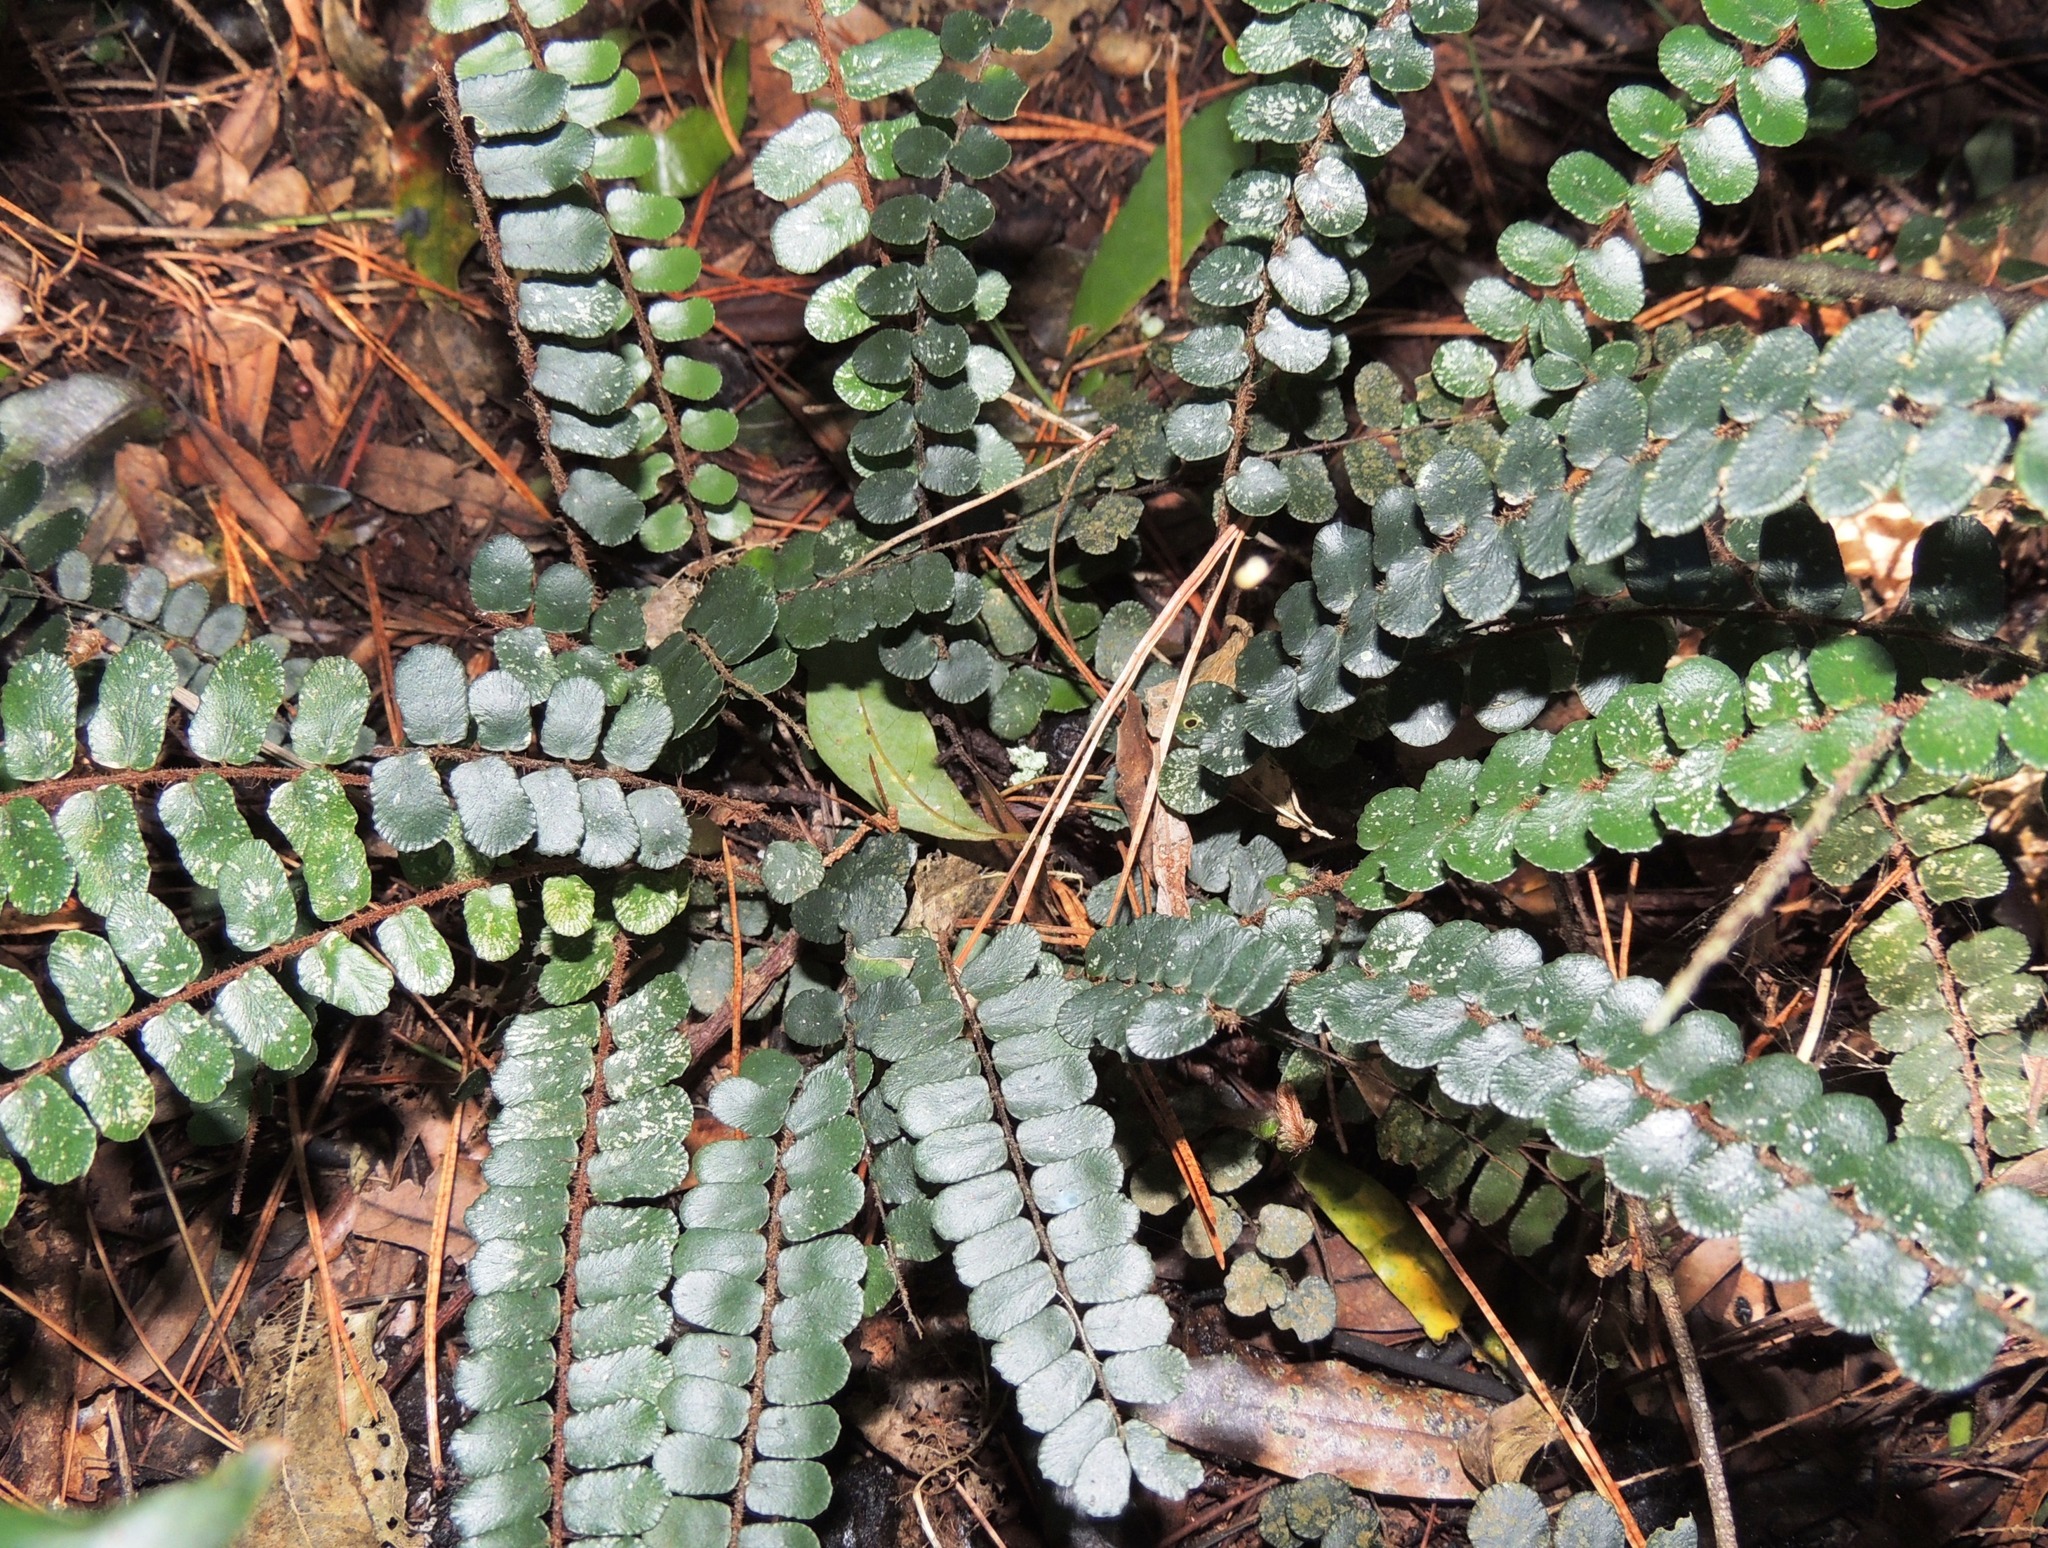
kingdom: Plantae
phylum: Tracheophyta
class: Polypodiopsida
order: Polypodiales
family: Pteridaceae
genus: Pellaea
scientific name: Pellaea rotundifolia
